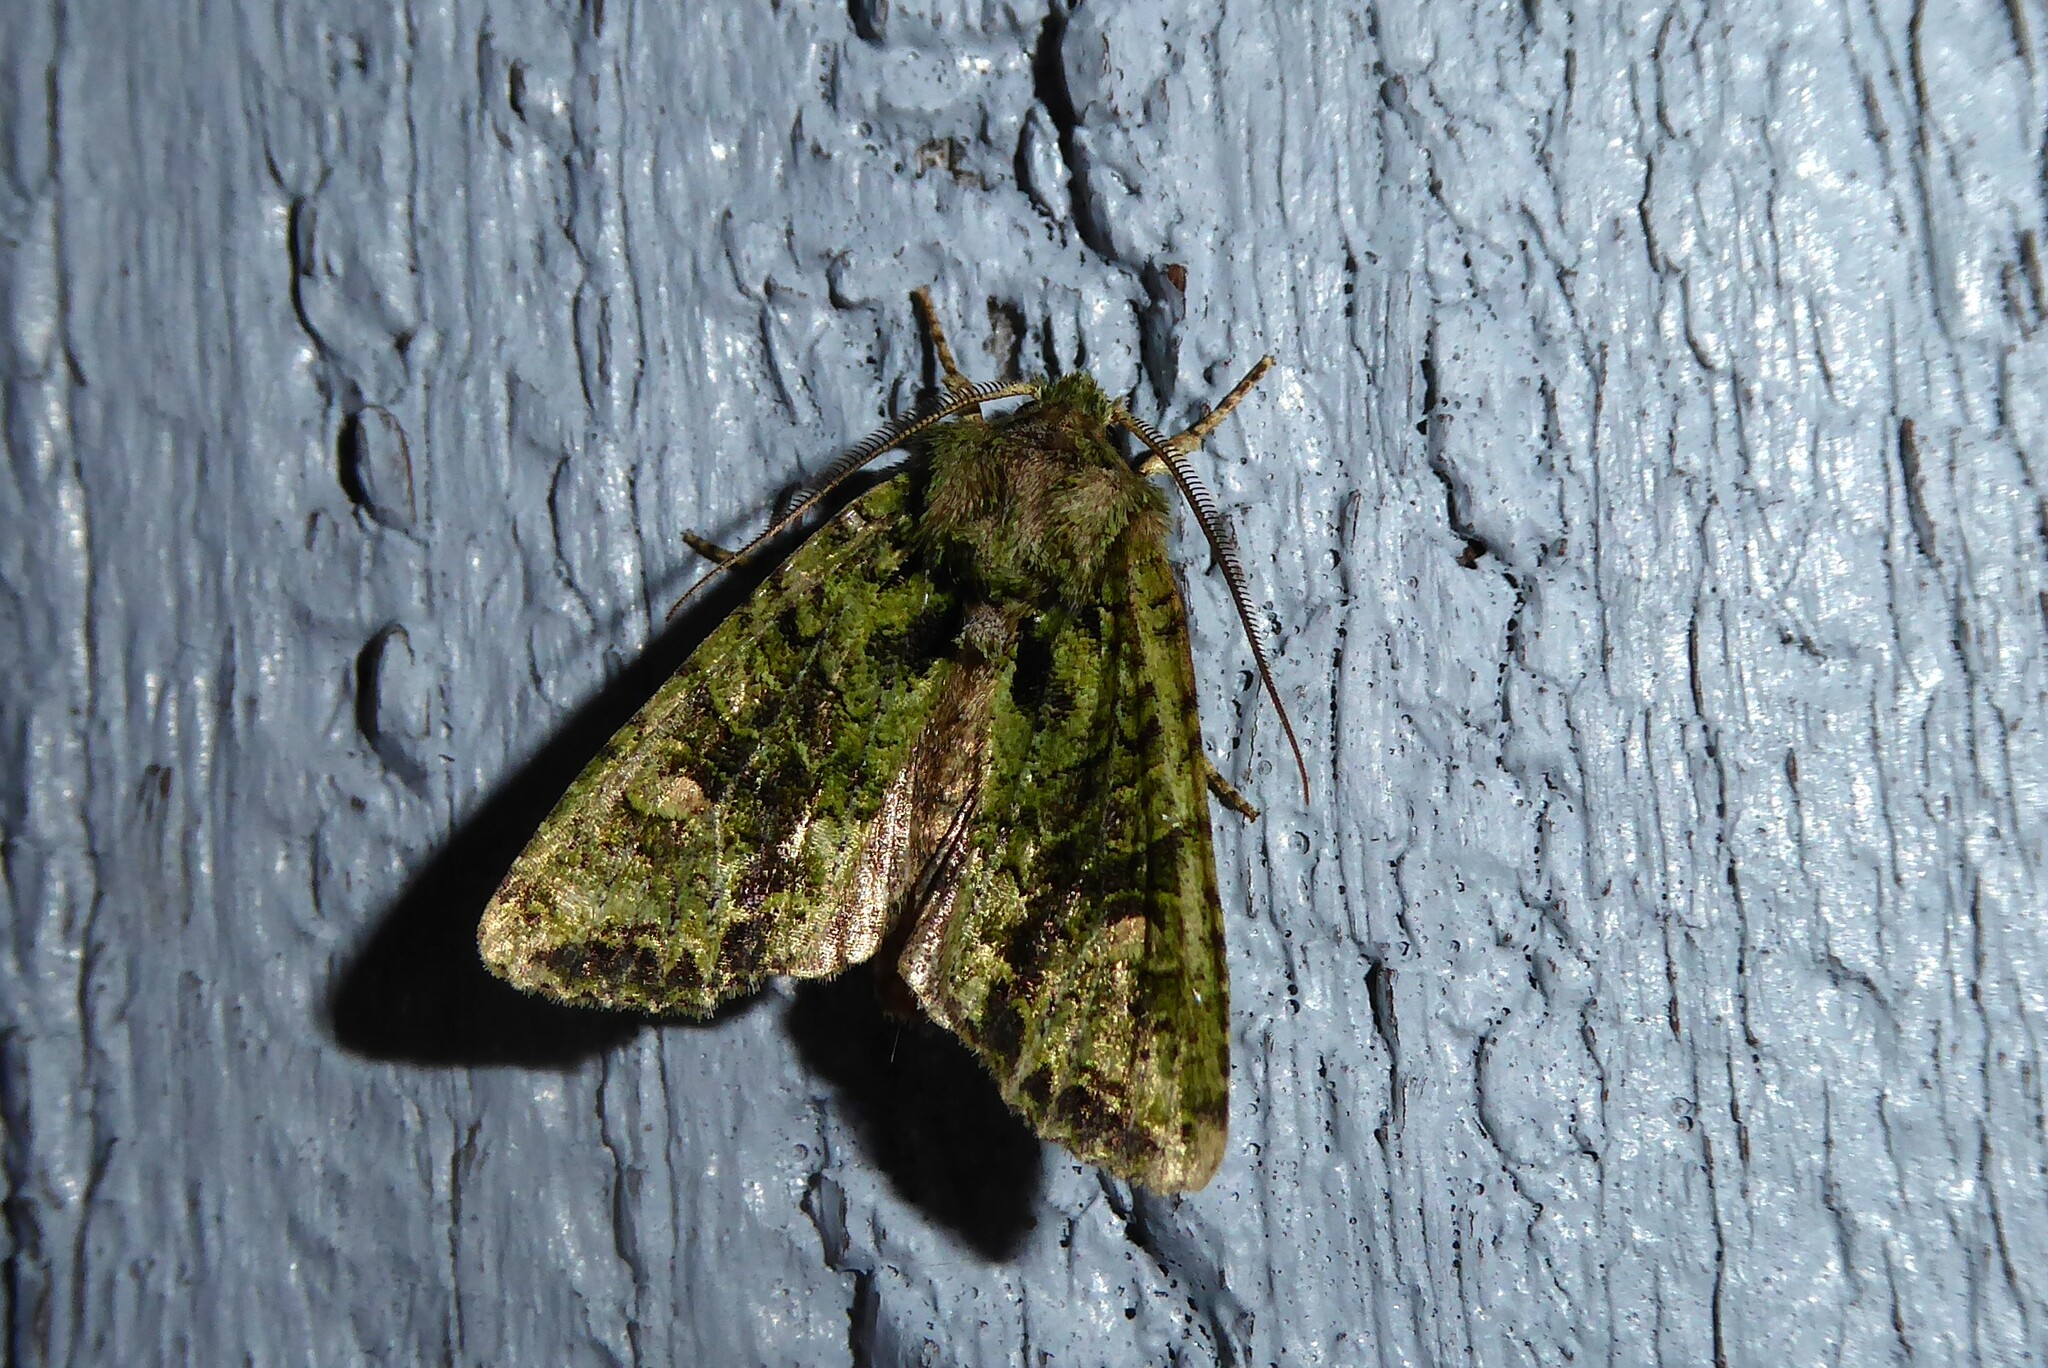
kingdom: Animalia
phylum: Arthropoda
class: Insecta
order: Lepidoptera
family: Noctuidae
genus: Ichneutica
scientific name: Ichneutica
